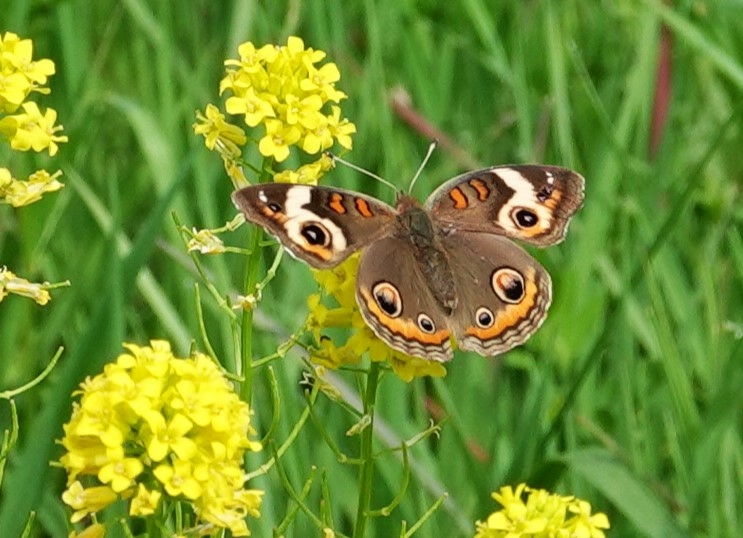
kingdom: Animalia
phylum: Arthropoda
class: Insecta
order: Lepidoptera
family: Nymphalidae
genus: Junonia
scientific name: Junonia coenia
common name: Common buckeye
